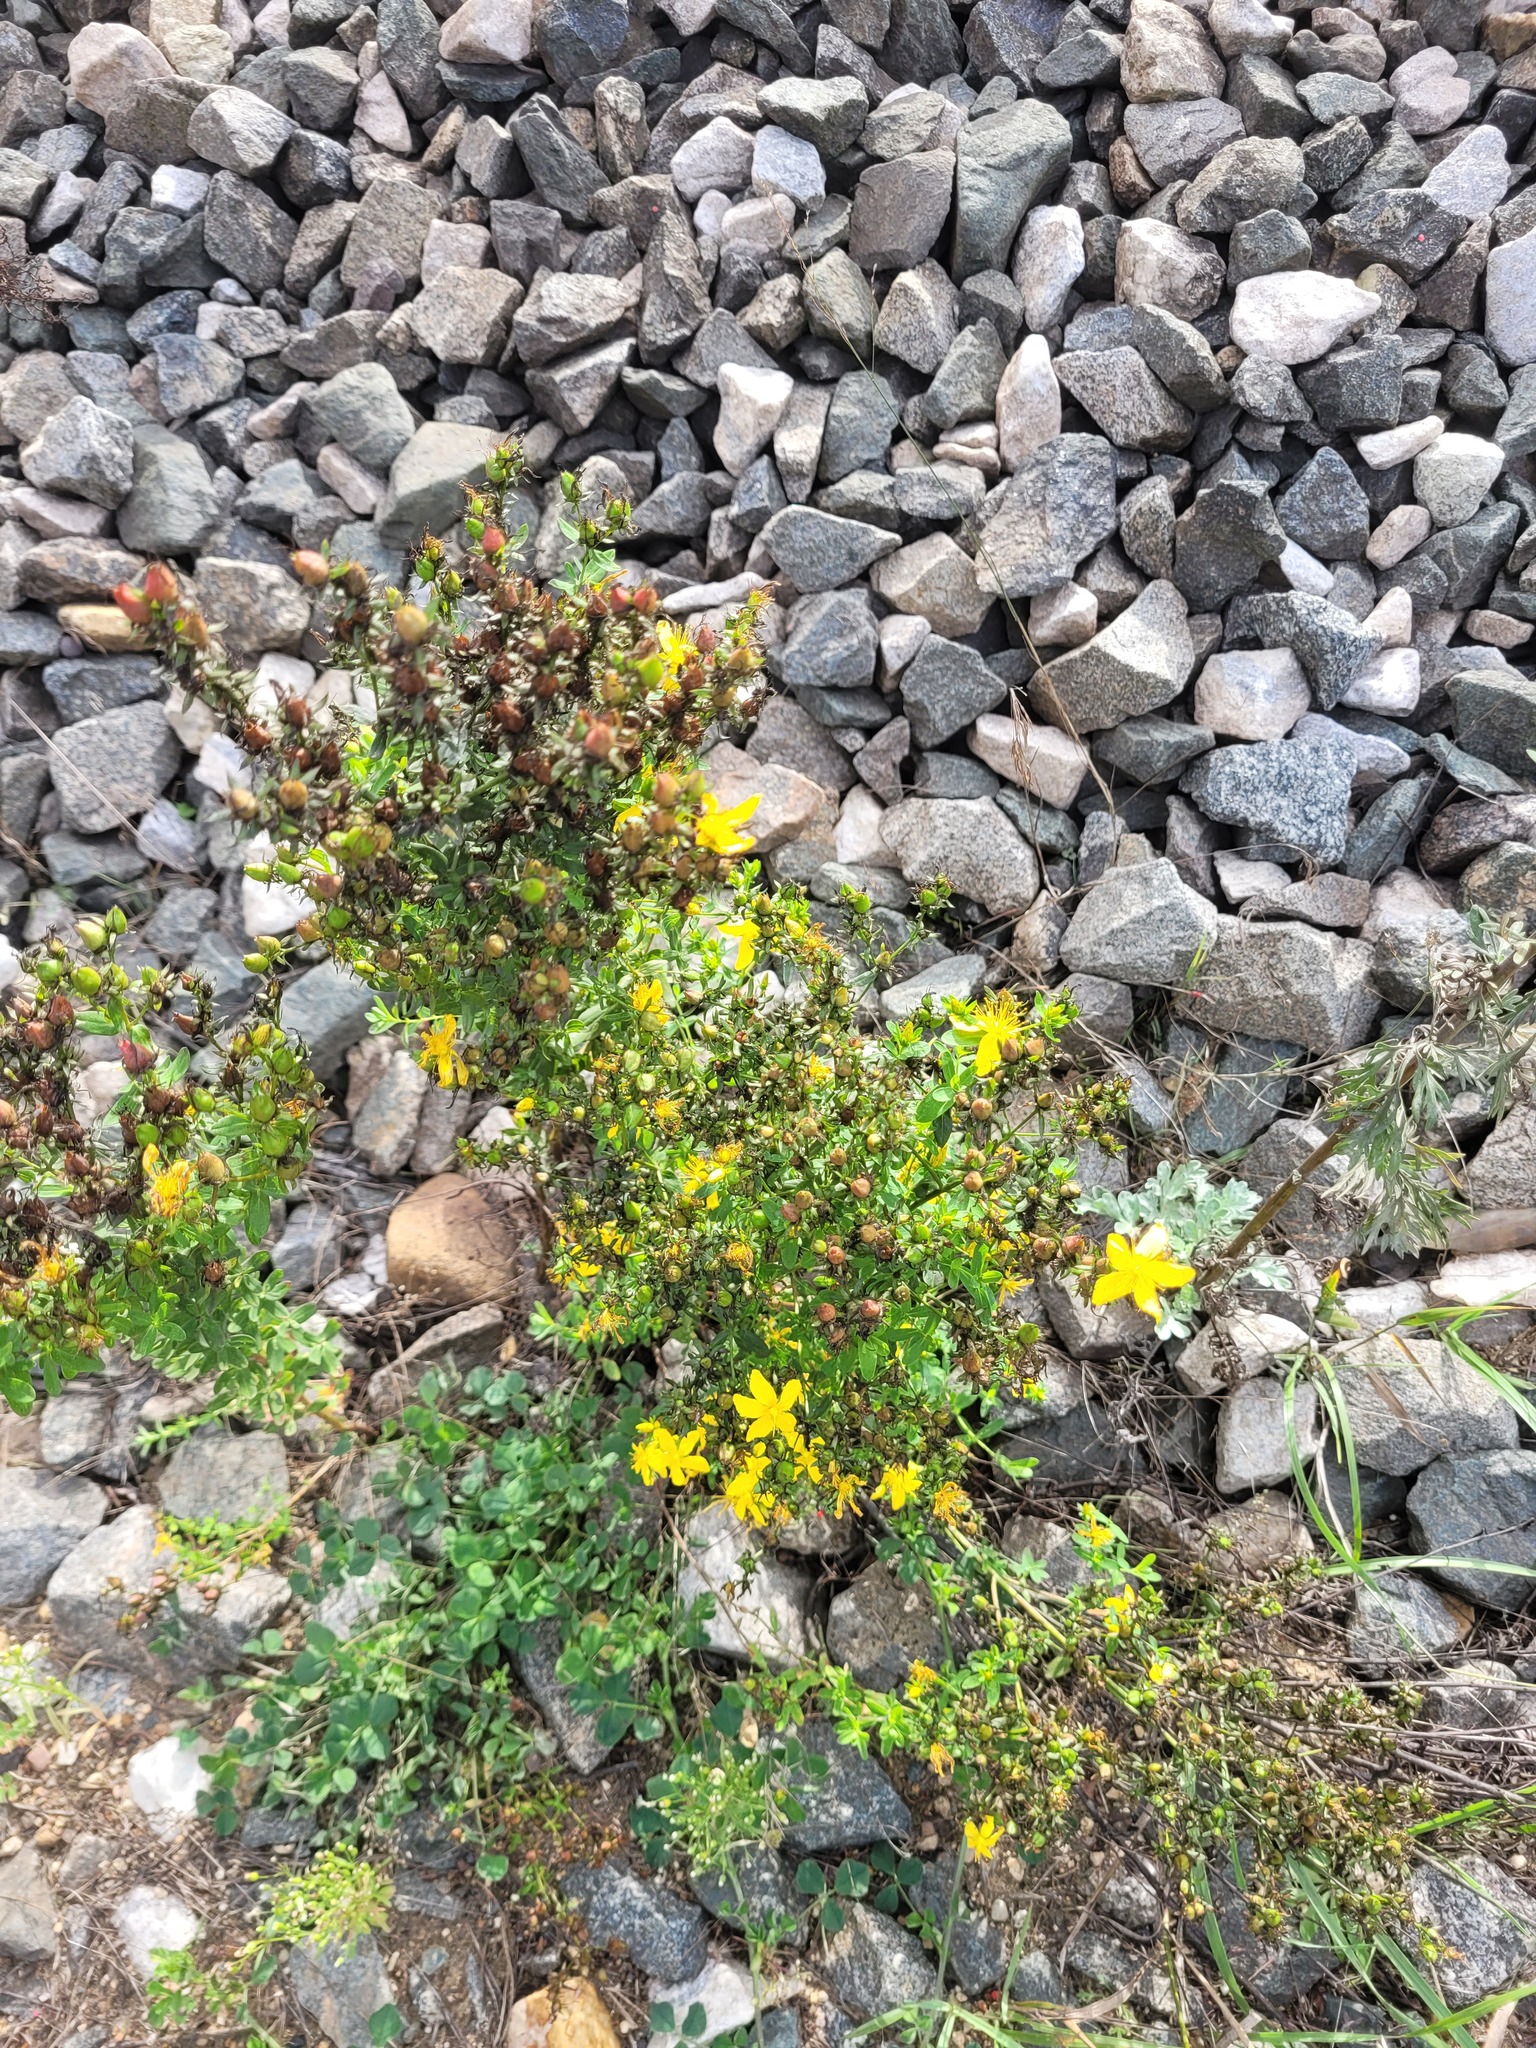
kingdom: Plantae
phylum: Tracheophyta
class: Magnoliopsida
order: Malpighiales
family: Hypericaceae
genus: Hypericum
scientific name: Hypericum perforatum
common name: Common st. johnswort
